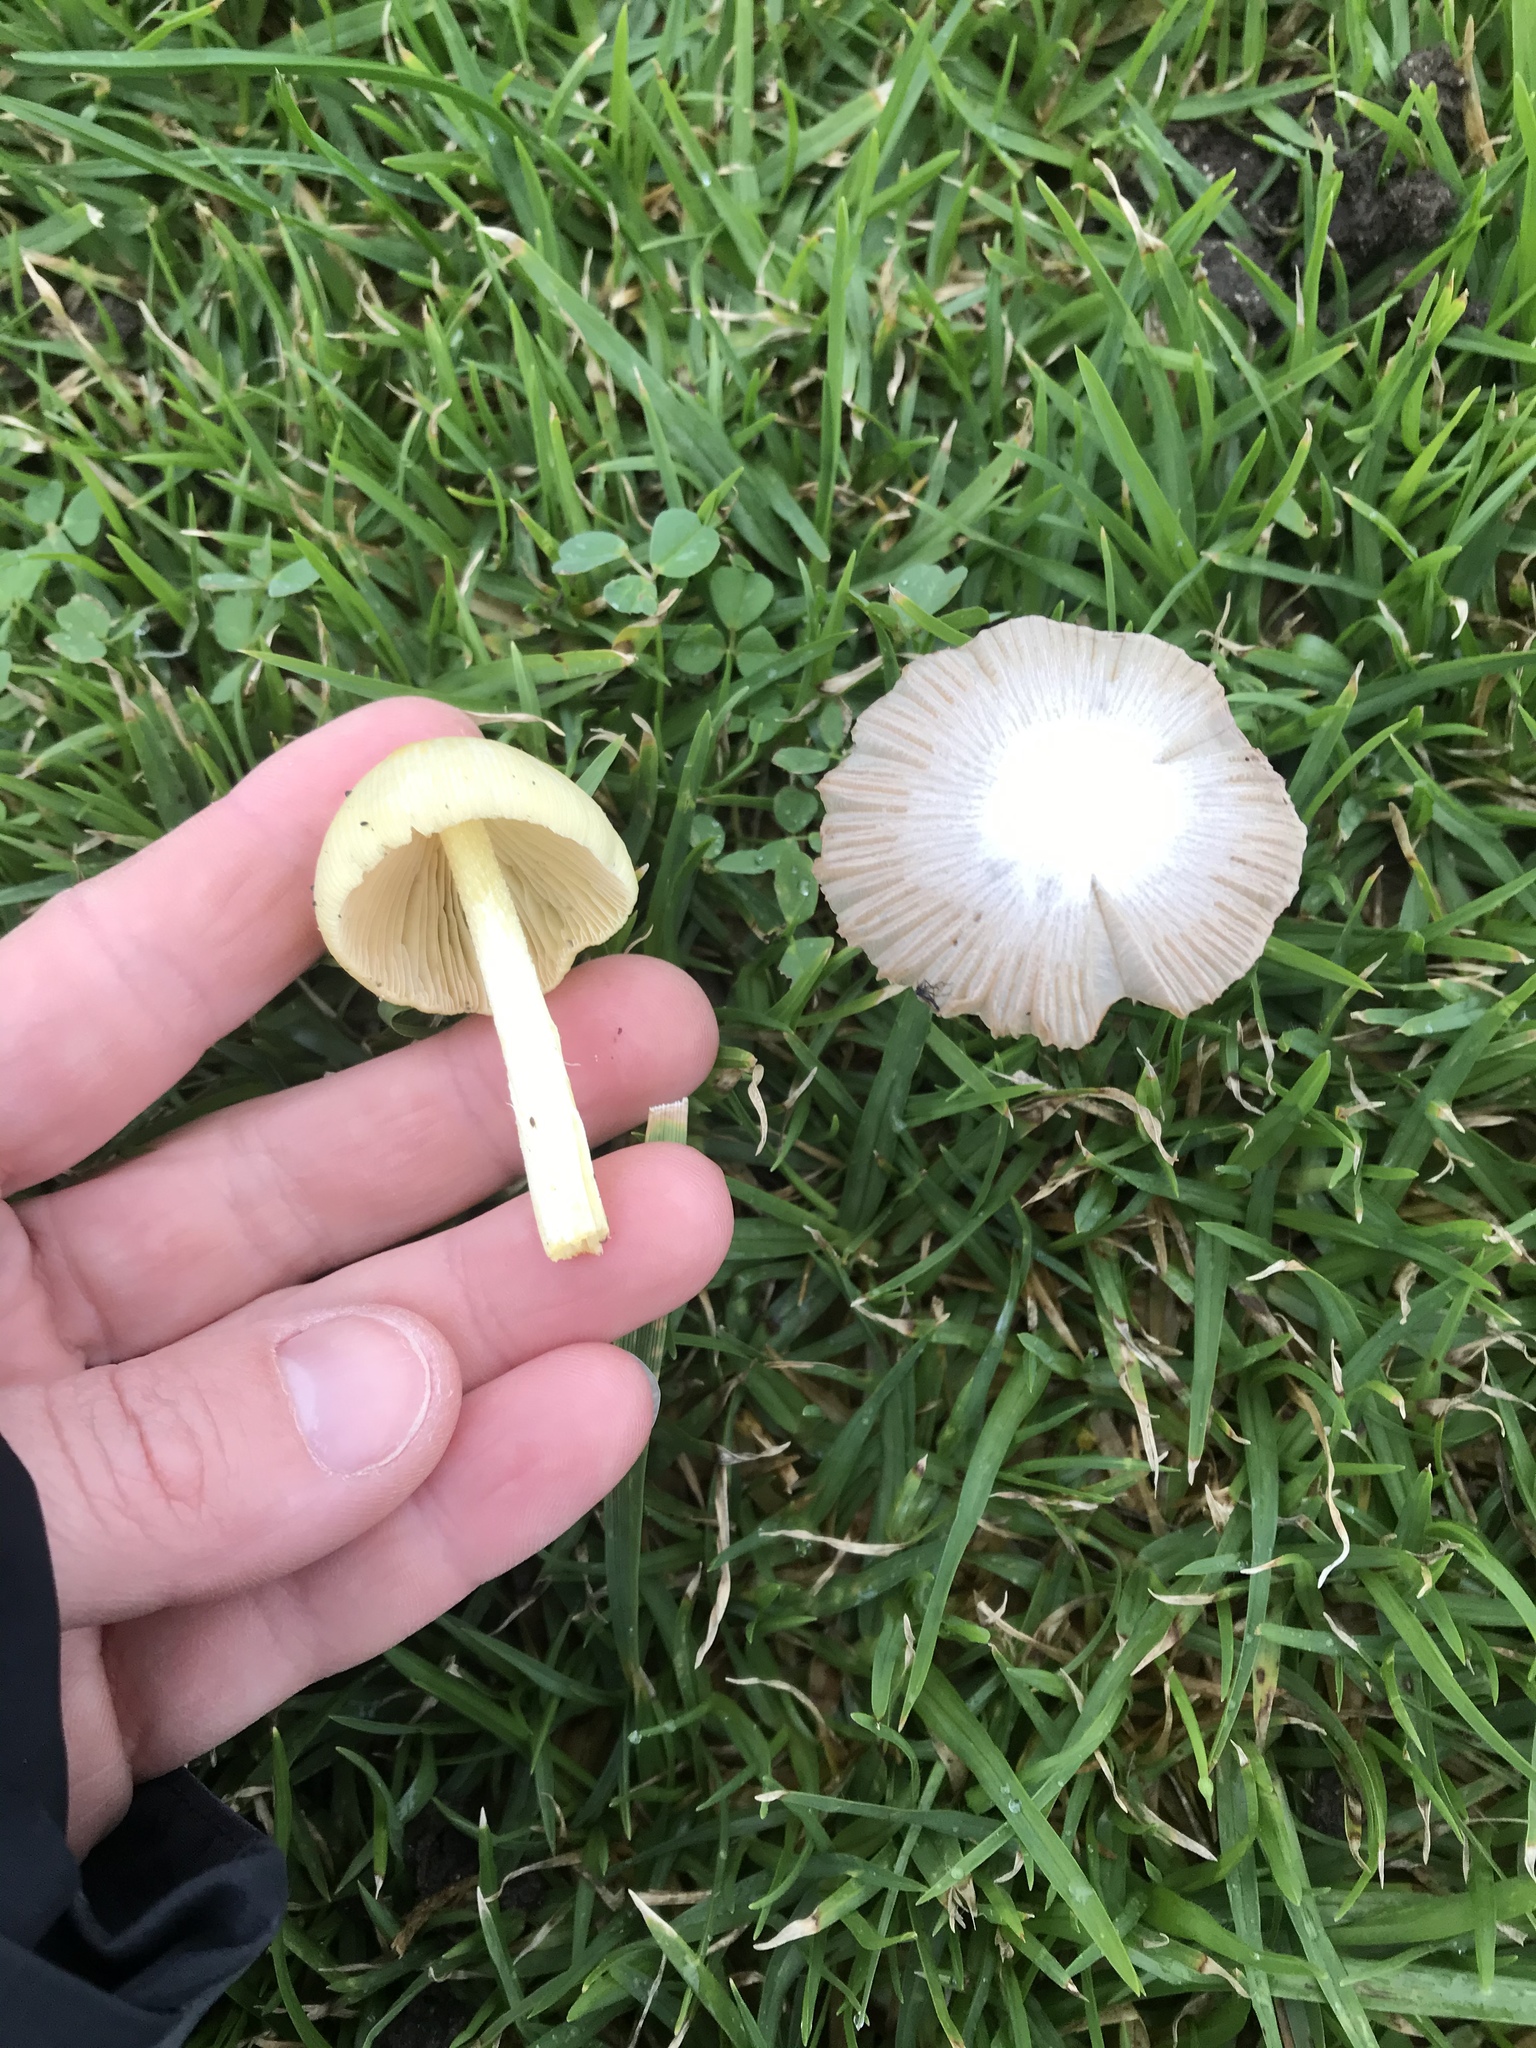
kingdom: Fungi
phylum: Basidiomycota
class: Agaricomycetes
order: Agaricales
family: Bolbitiaceae
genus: Bolbitius
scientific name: Bolbitius titubans
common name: Yellow fieldcap
